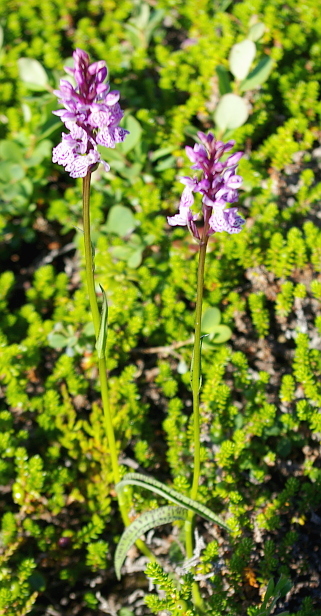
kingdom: Plantae
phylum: Tracheophyta
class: Liliopsida
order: Asparagales
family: Orchidaceae
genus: Dactylorhiza
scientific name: Dactylorhiza maculata
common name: Heath spotted-orchid
